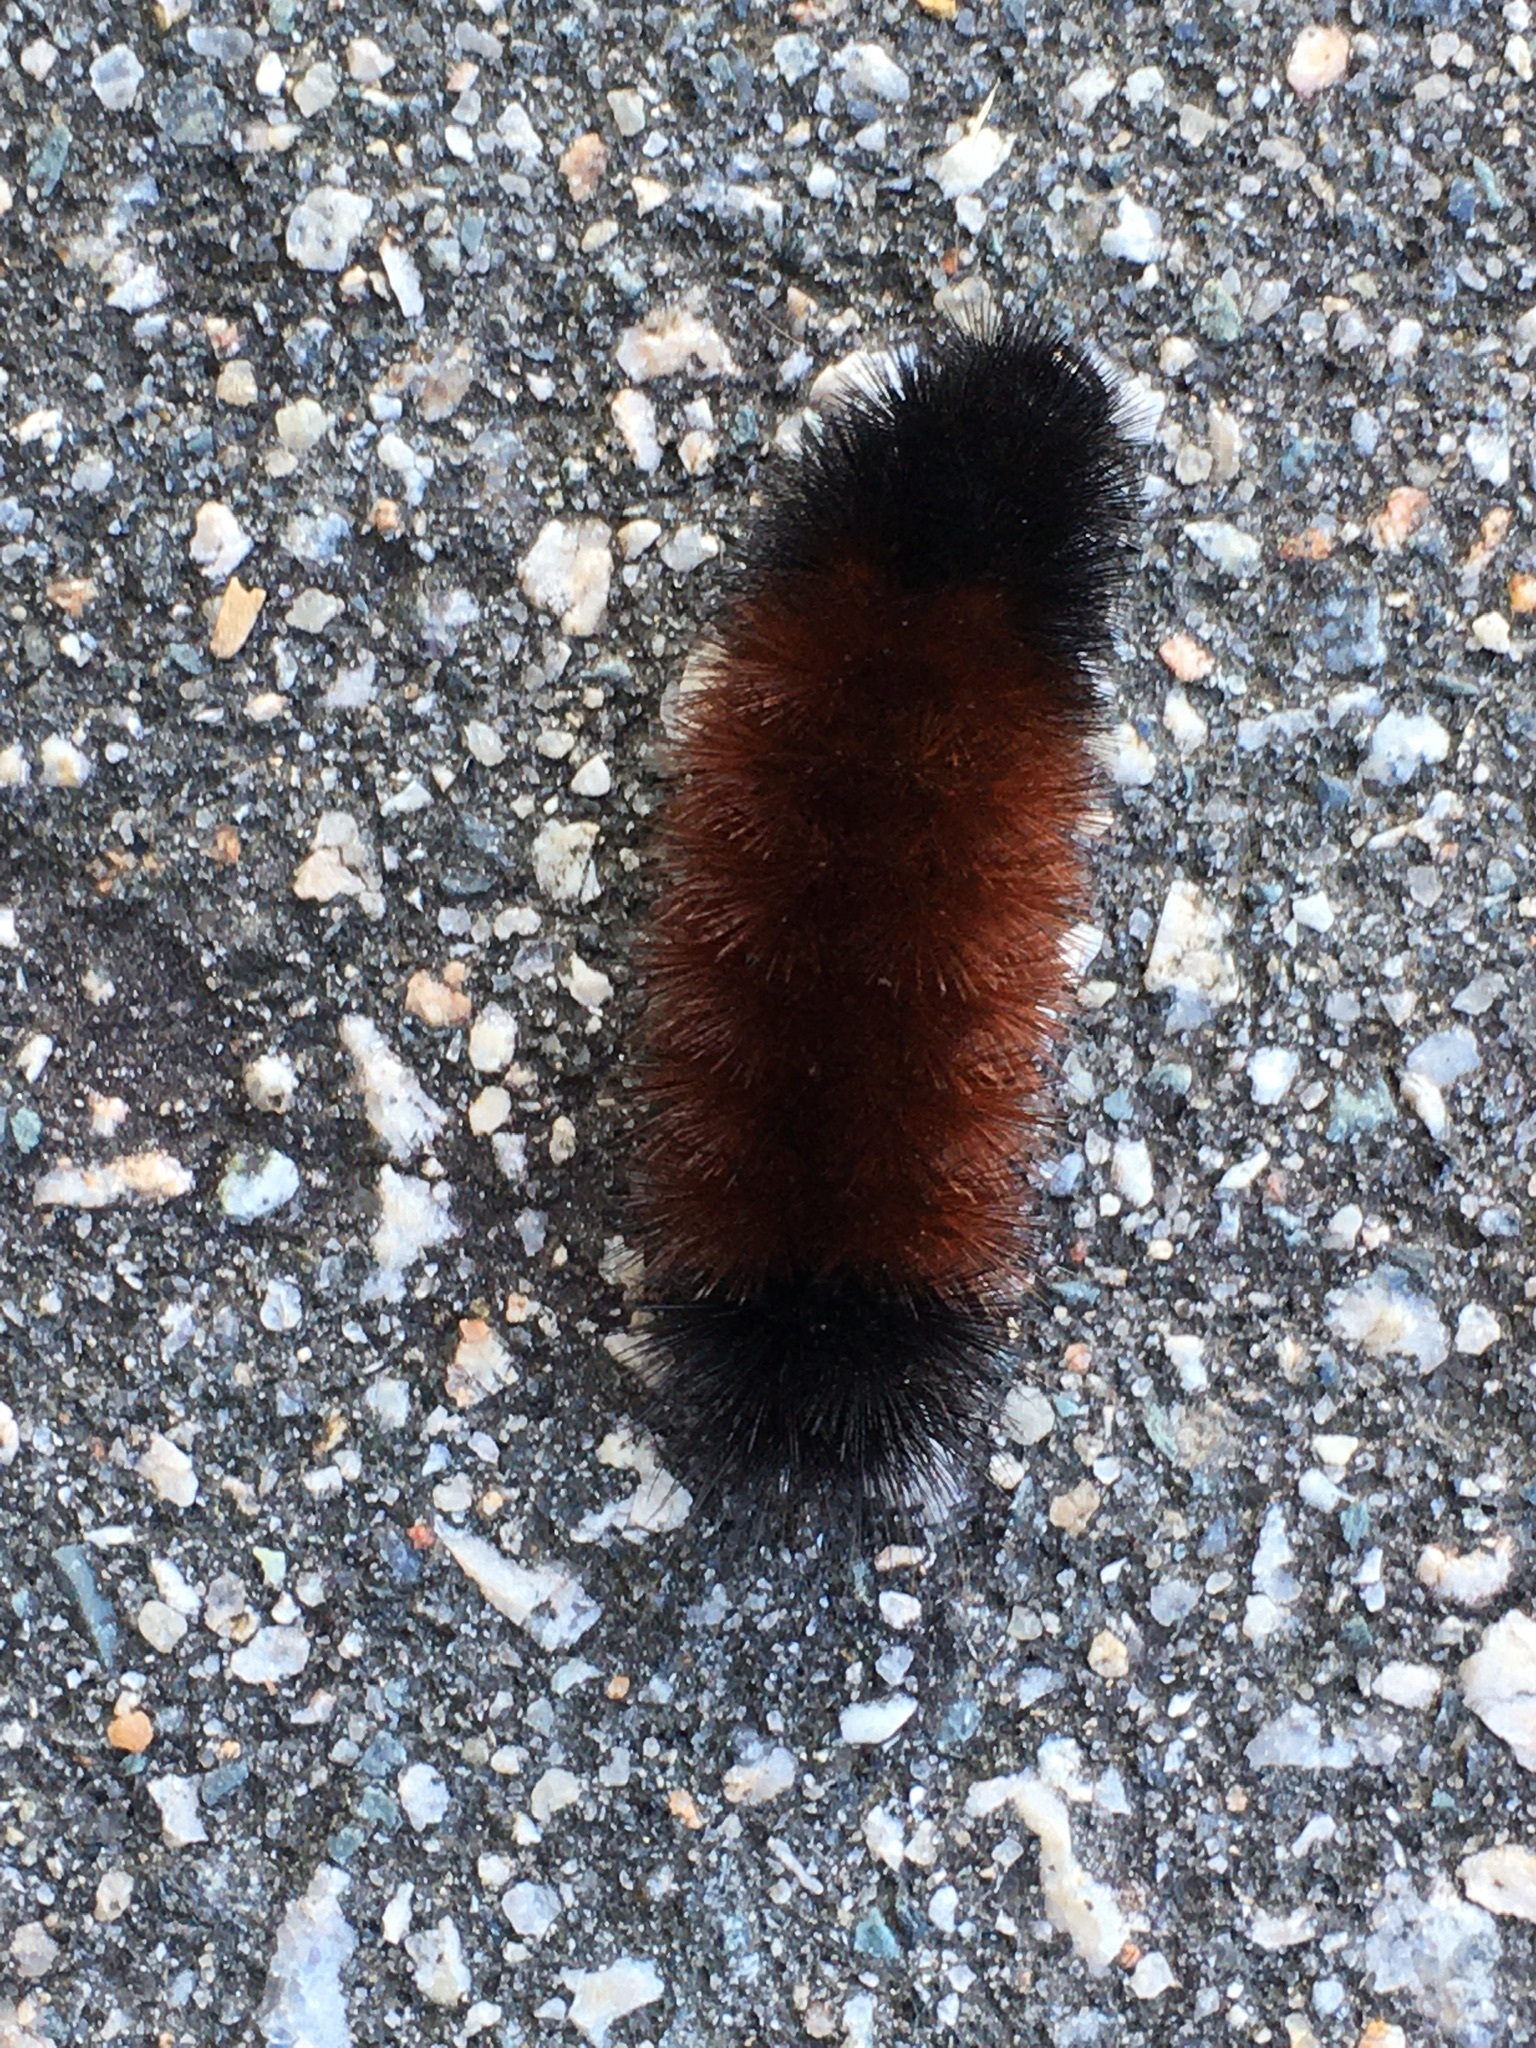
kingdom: Animalia
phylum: Arthropoda
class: Insecta
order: Lepidoptera
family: Erebidae
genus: Pyrrharctia
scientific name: Pyrrharctia isabella
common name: Isabella tiger moth
